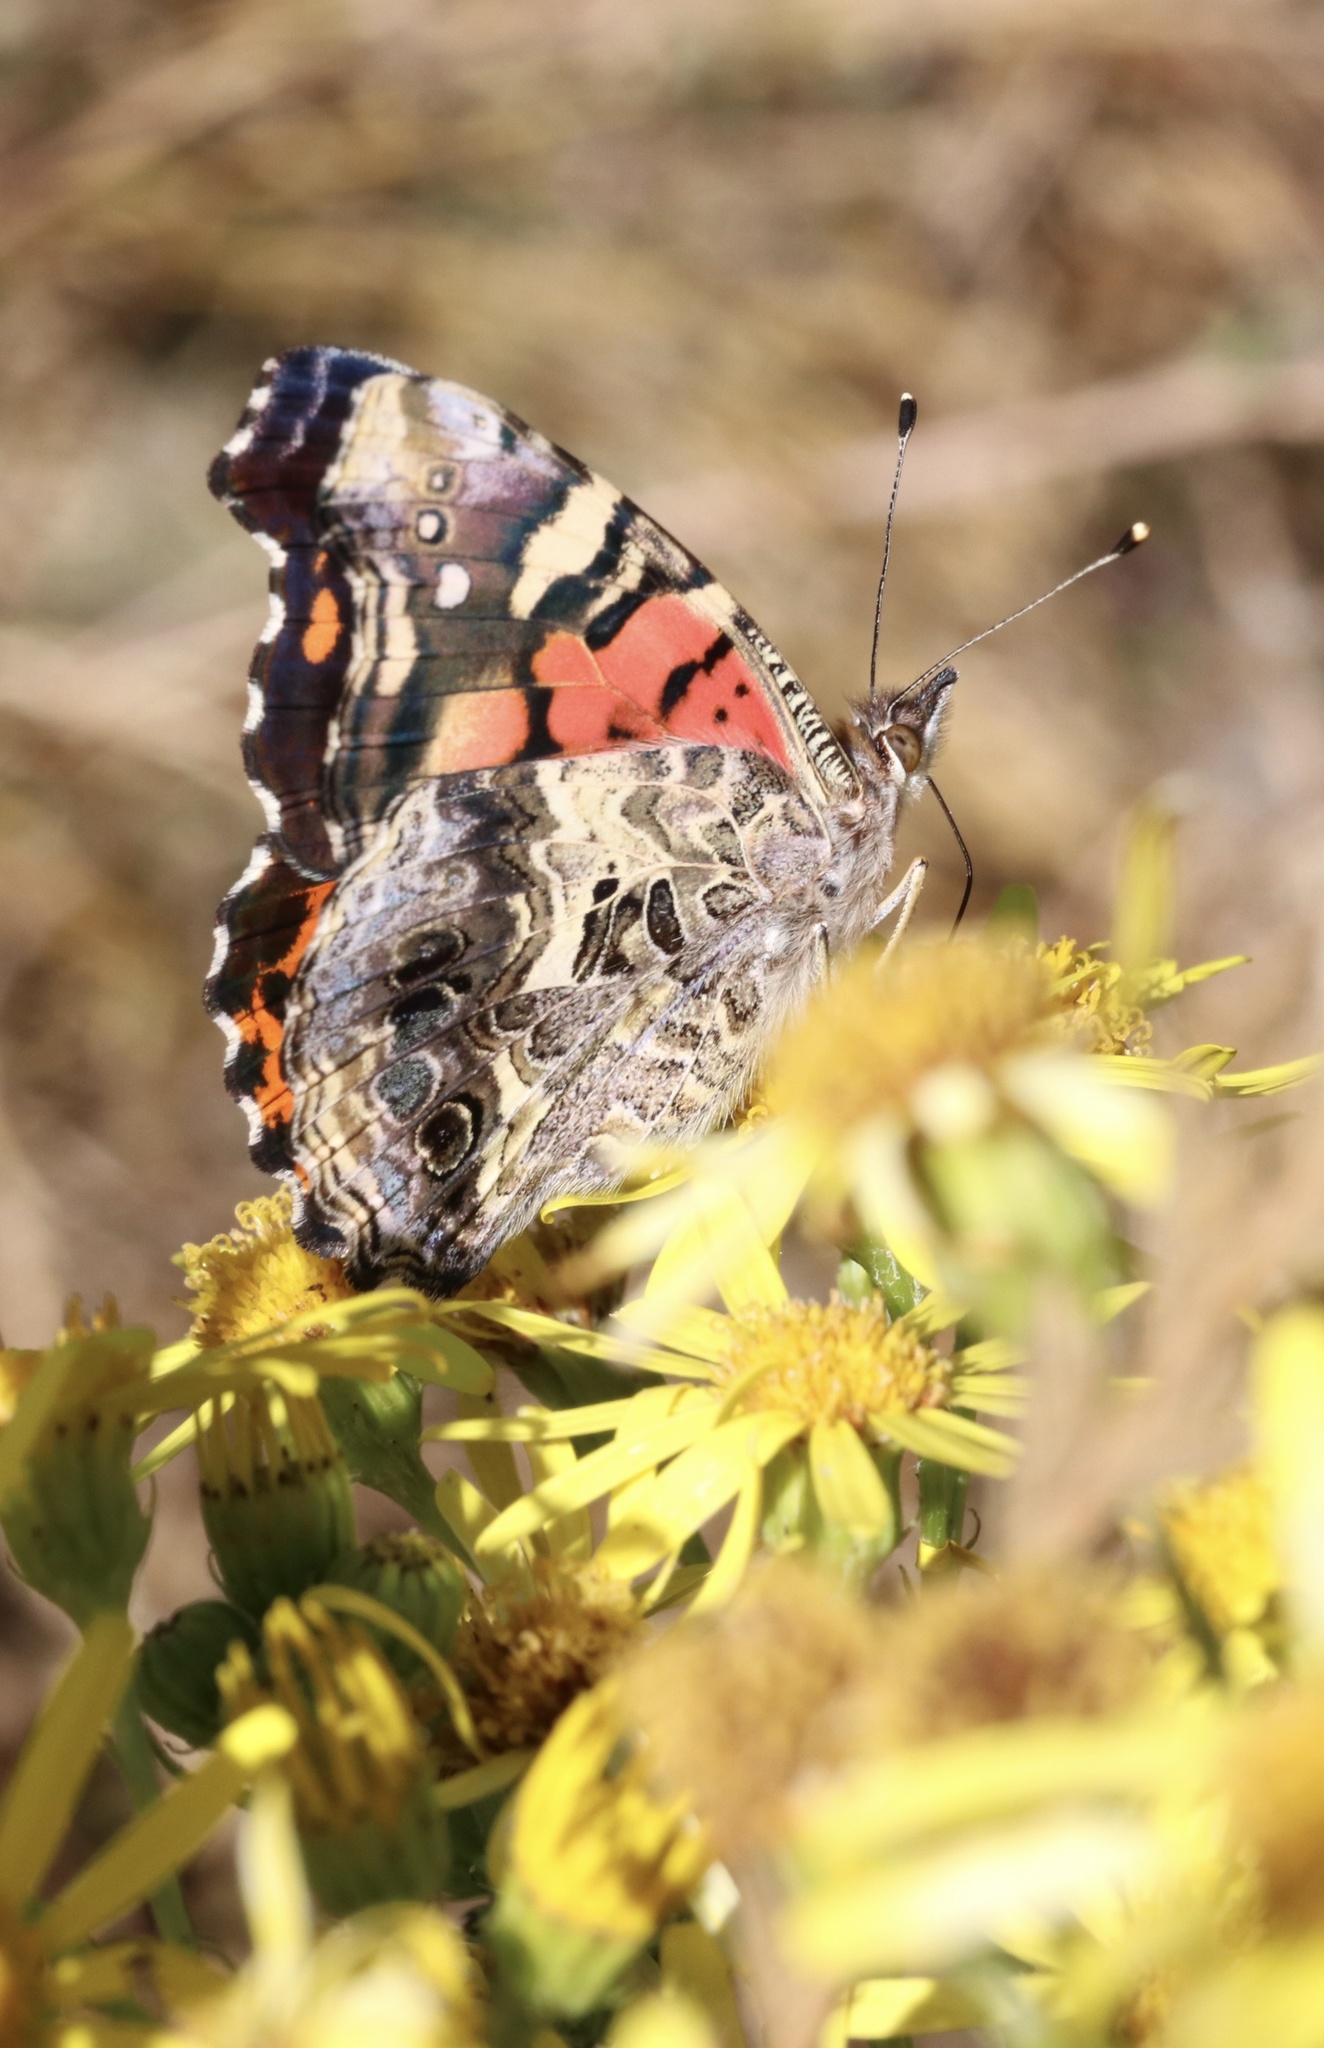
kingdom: Animalia
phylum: Arthropoda
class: Insecta
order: Lepidoptera
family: Nymphalidae
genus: Vanessa
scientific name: Vanessa carye
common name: Subtropical lady
